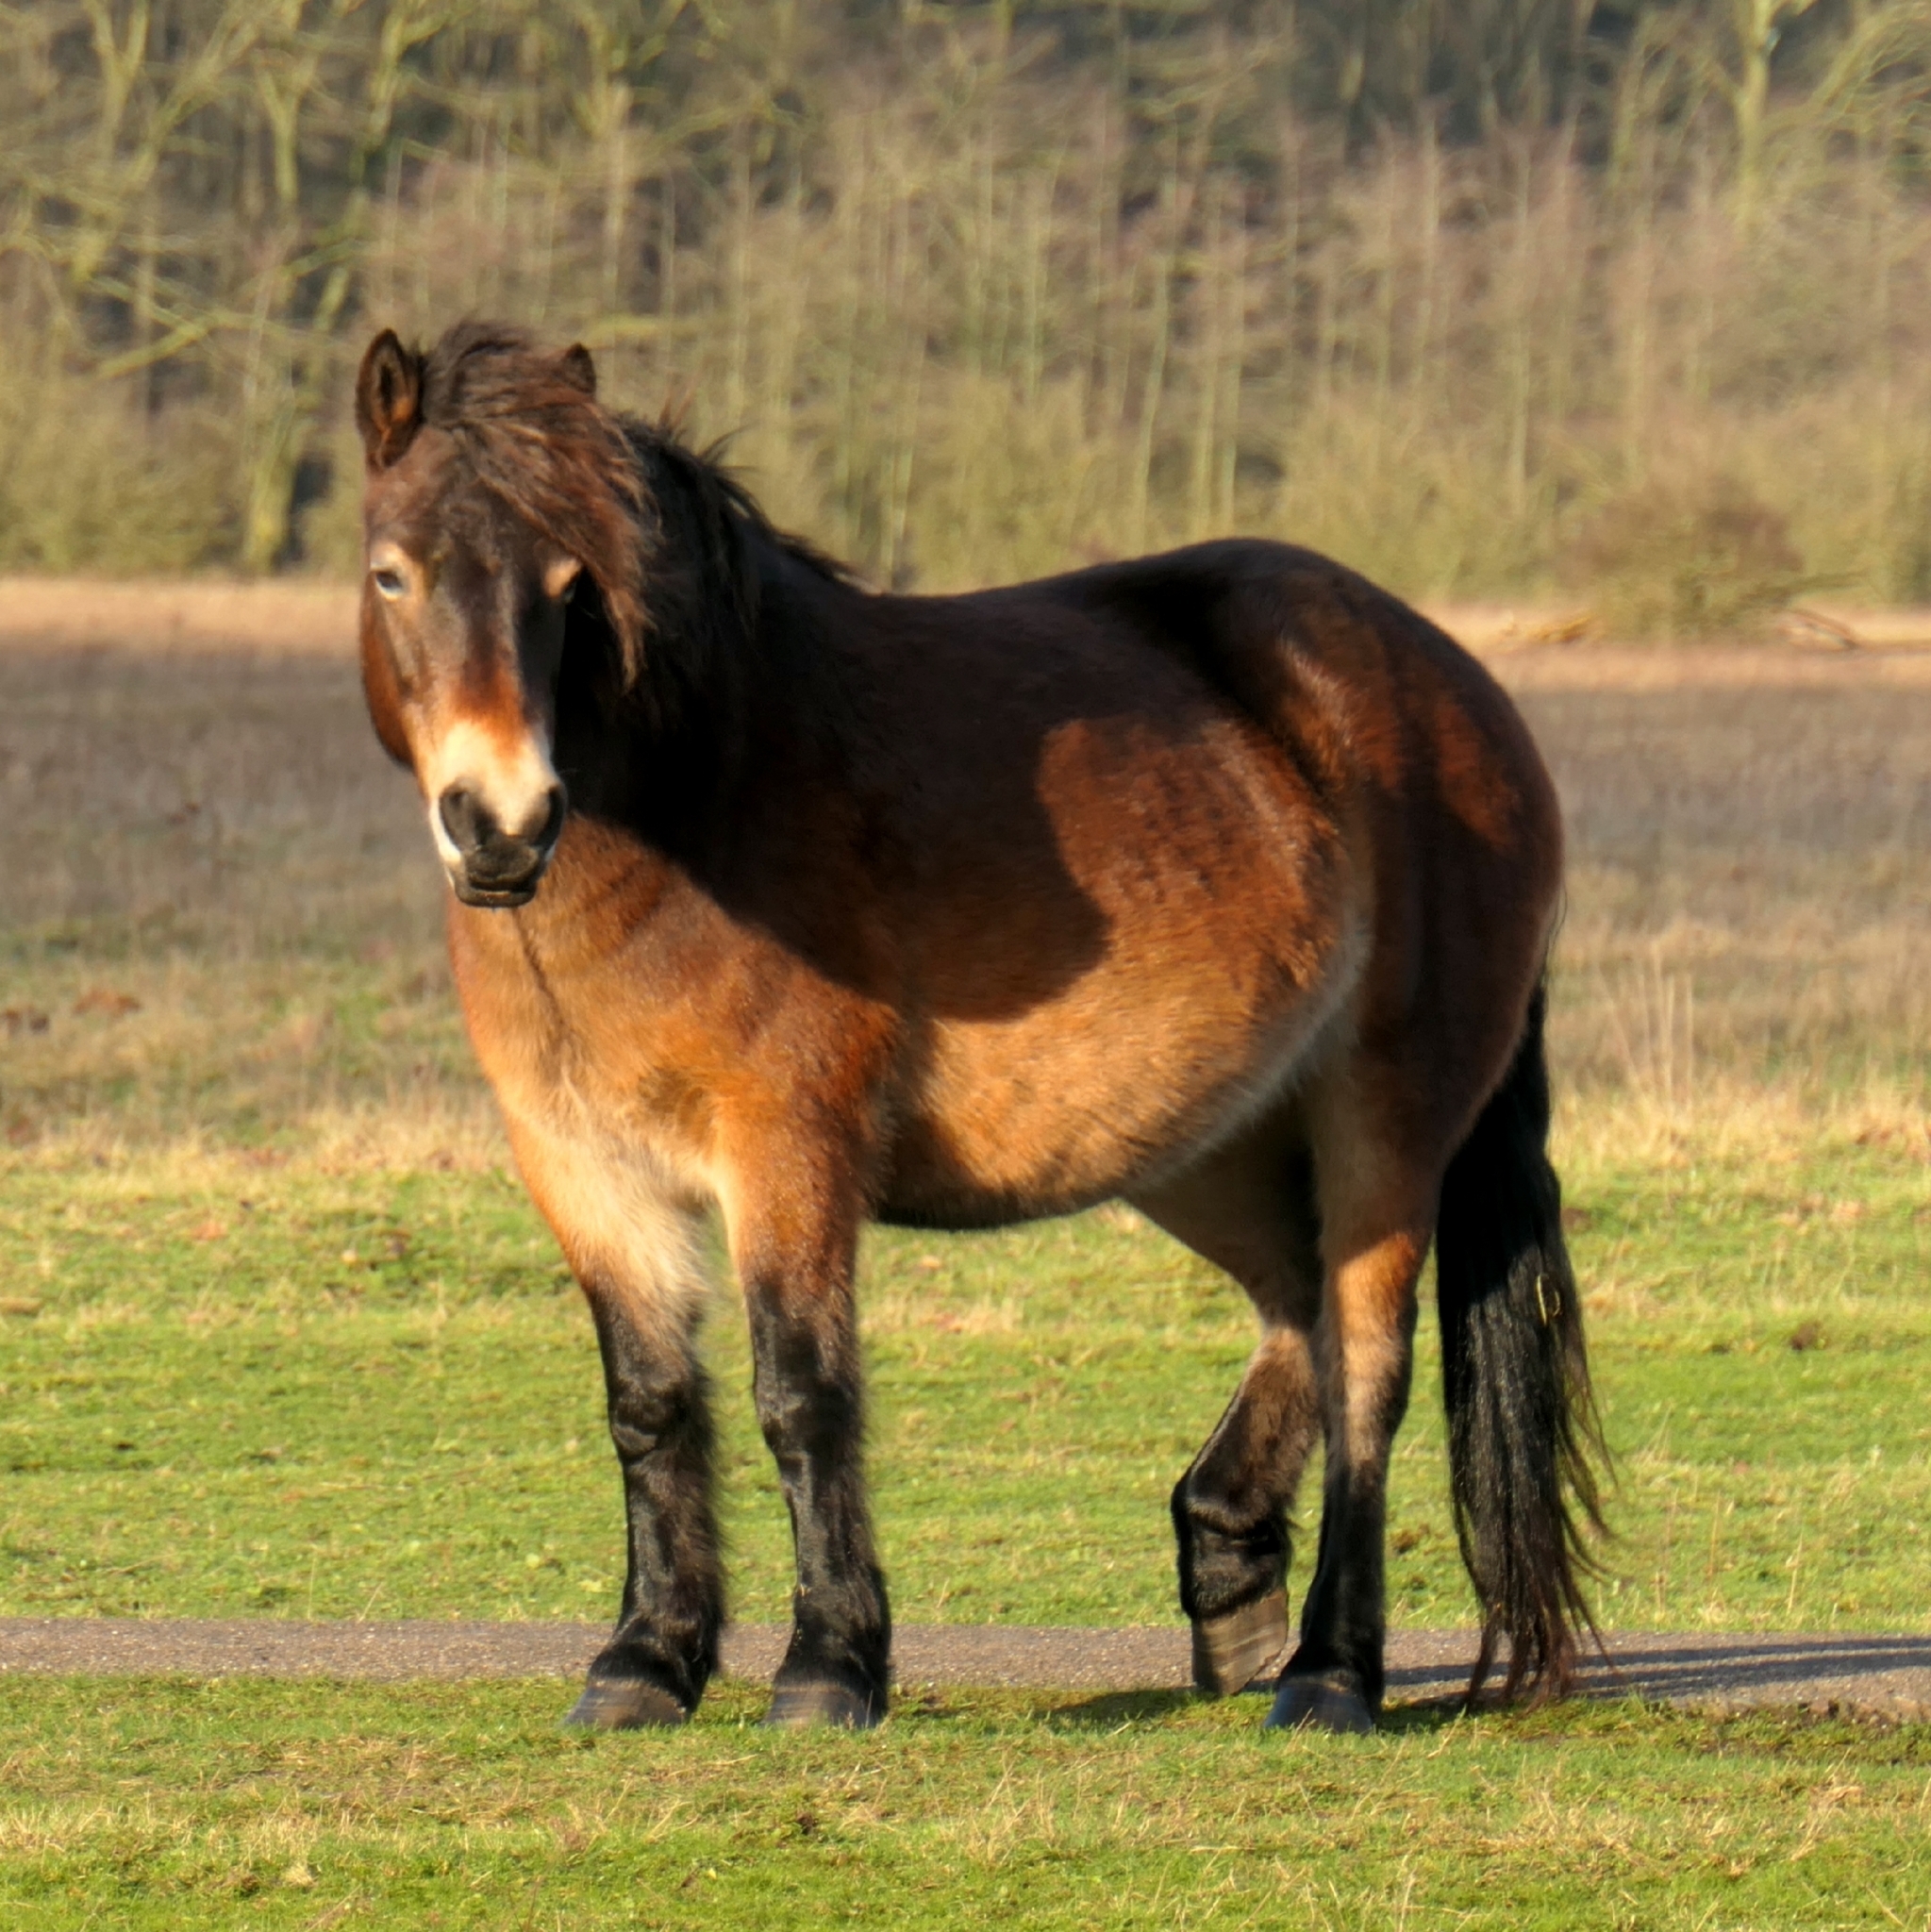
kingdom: Animalia
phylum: Chordata
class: Mammalia
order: Perissodactyla
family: Equidae
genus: Equus
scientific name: Equus caballus
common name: Horse
